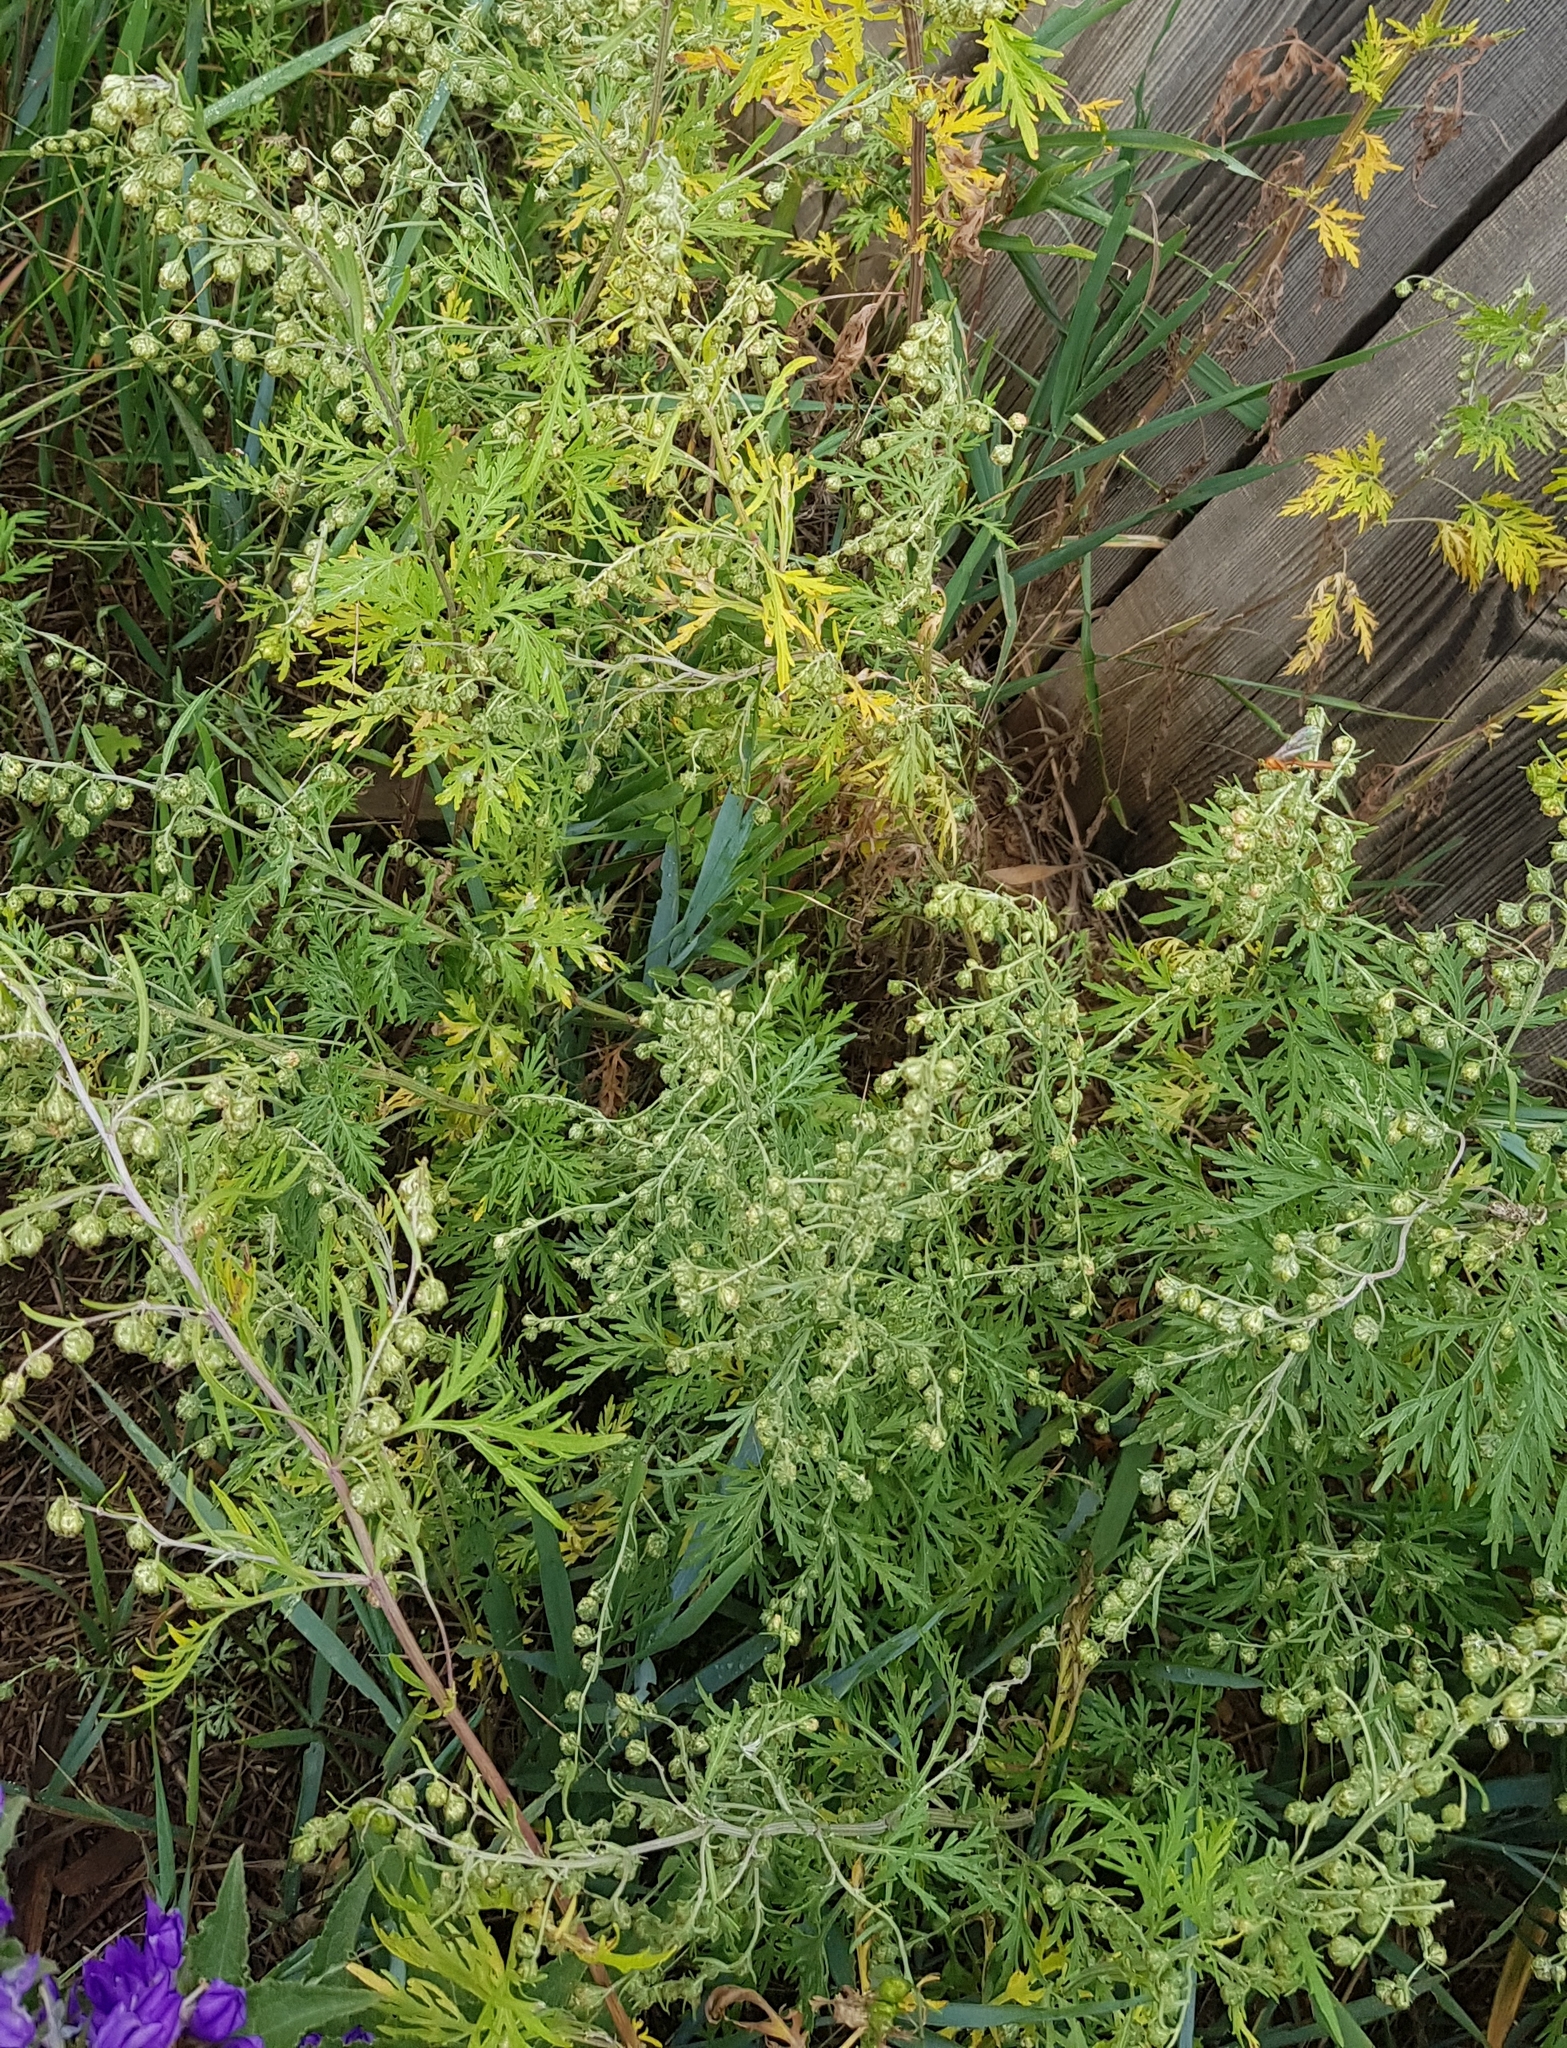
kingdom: Plantae
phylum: Tracheophyta
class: Magnoliopsida
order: Asterales
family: Asteraceae
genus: Artemisia
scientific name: Artemisia sieversiana
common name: Sieversian wormwood
